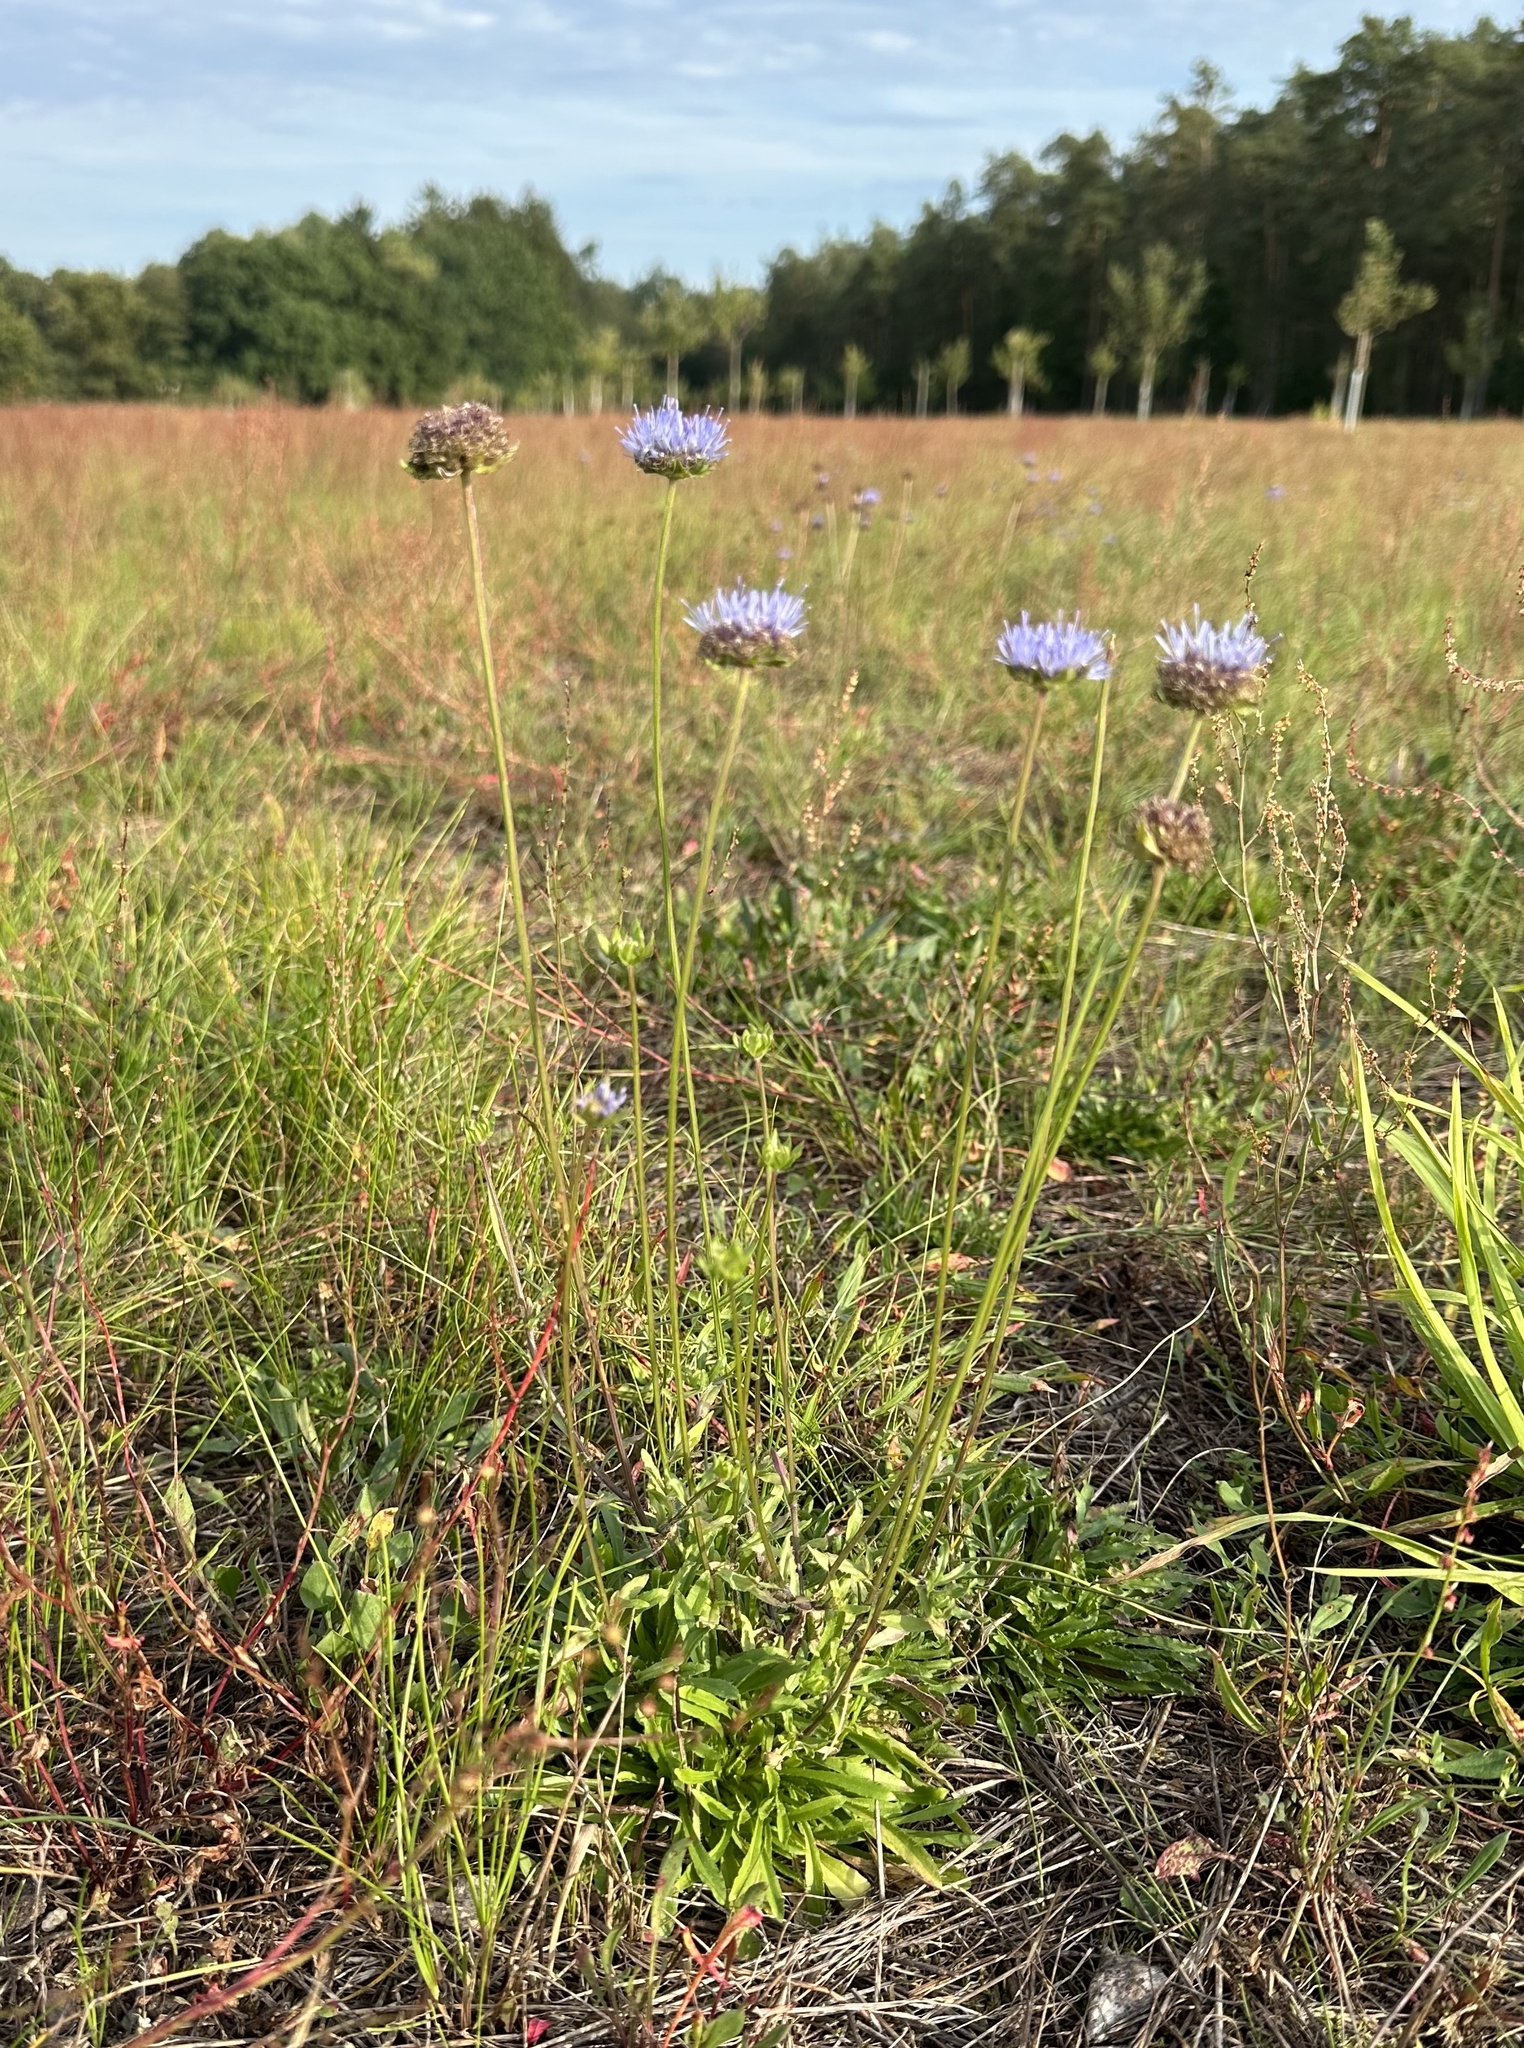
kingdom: Plantae
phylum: Tracheophyta
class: Magnoliopsida
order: Asterales
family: Campanulaceae
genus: Jasione
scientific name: Jasione montana
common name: Sheep's-bit
